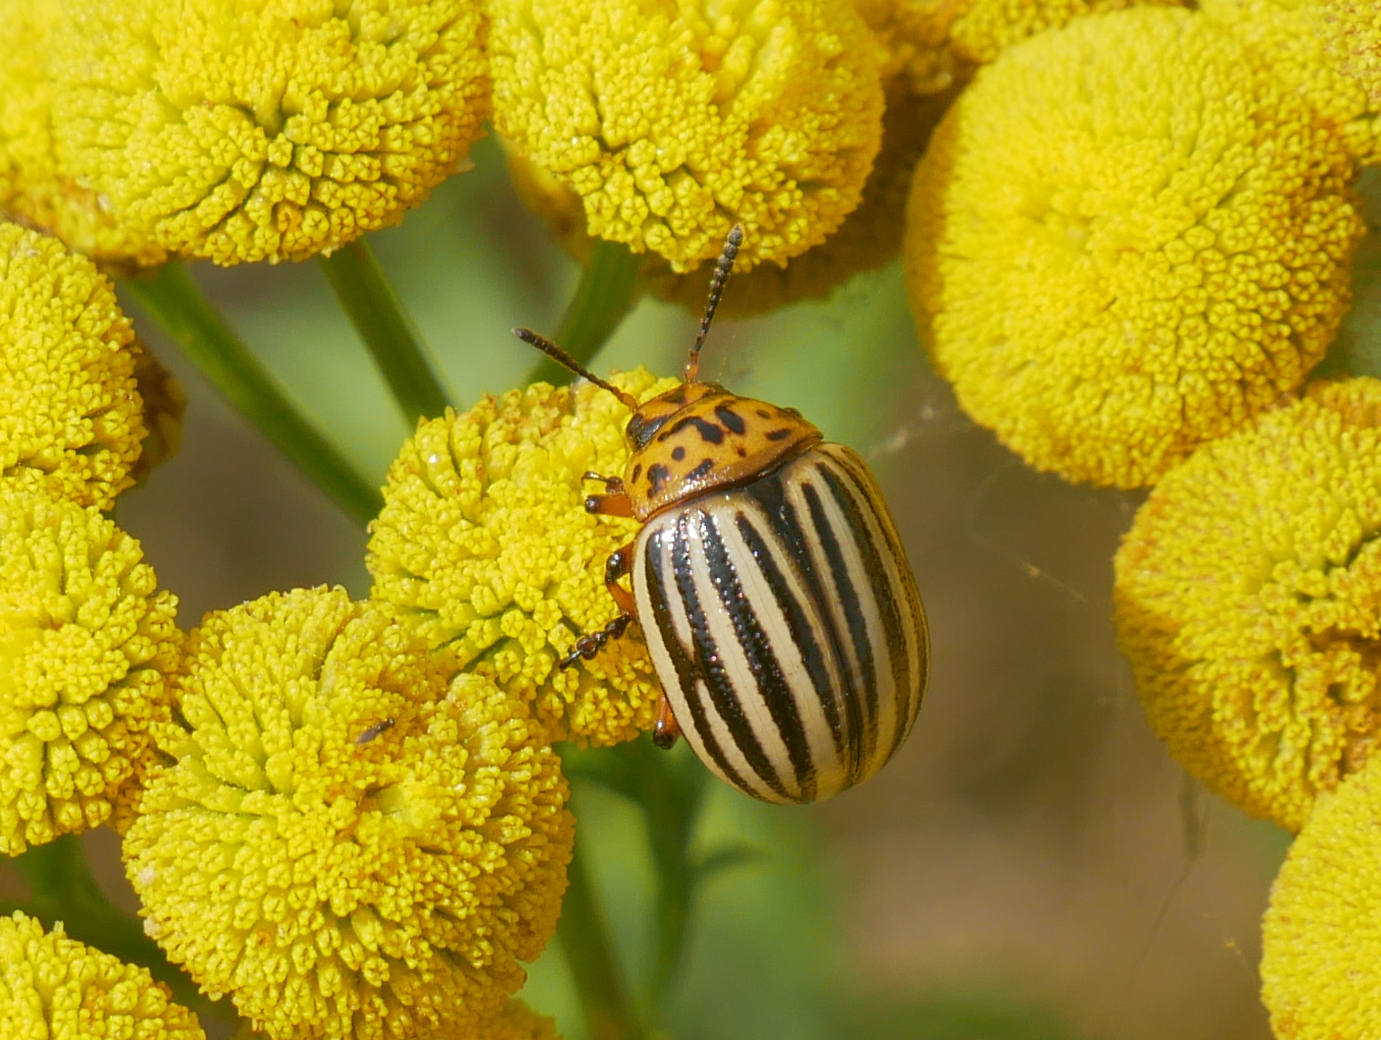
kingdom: Animalia
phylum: Arthropoda
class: Insecta
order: Coleoptera
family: Chrysomelidae
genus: Leptinotarsa
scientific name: Leptinotarsa decemlineata
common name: Colorado potato beetle
